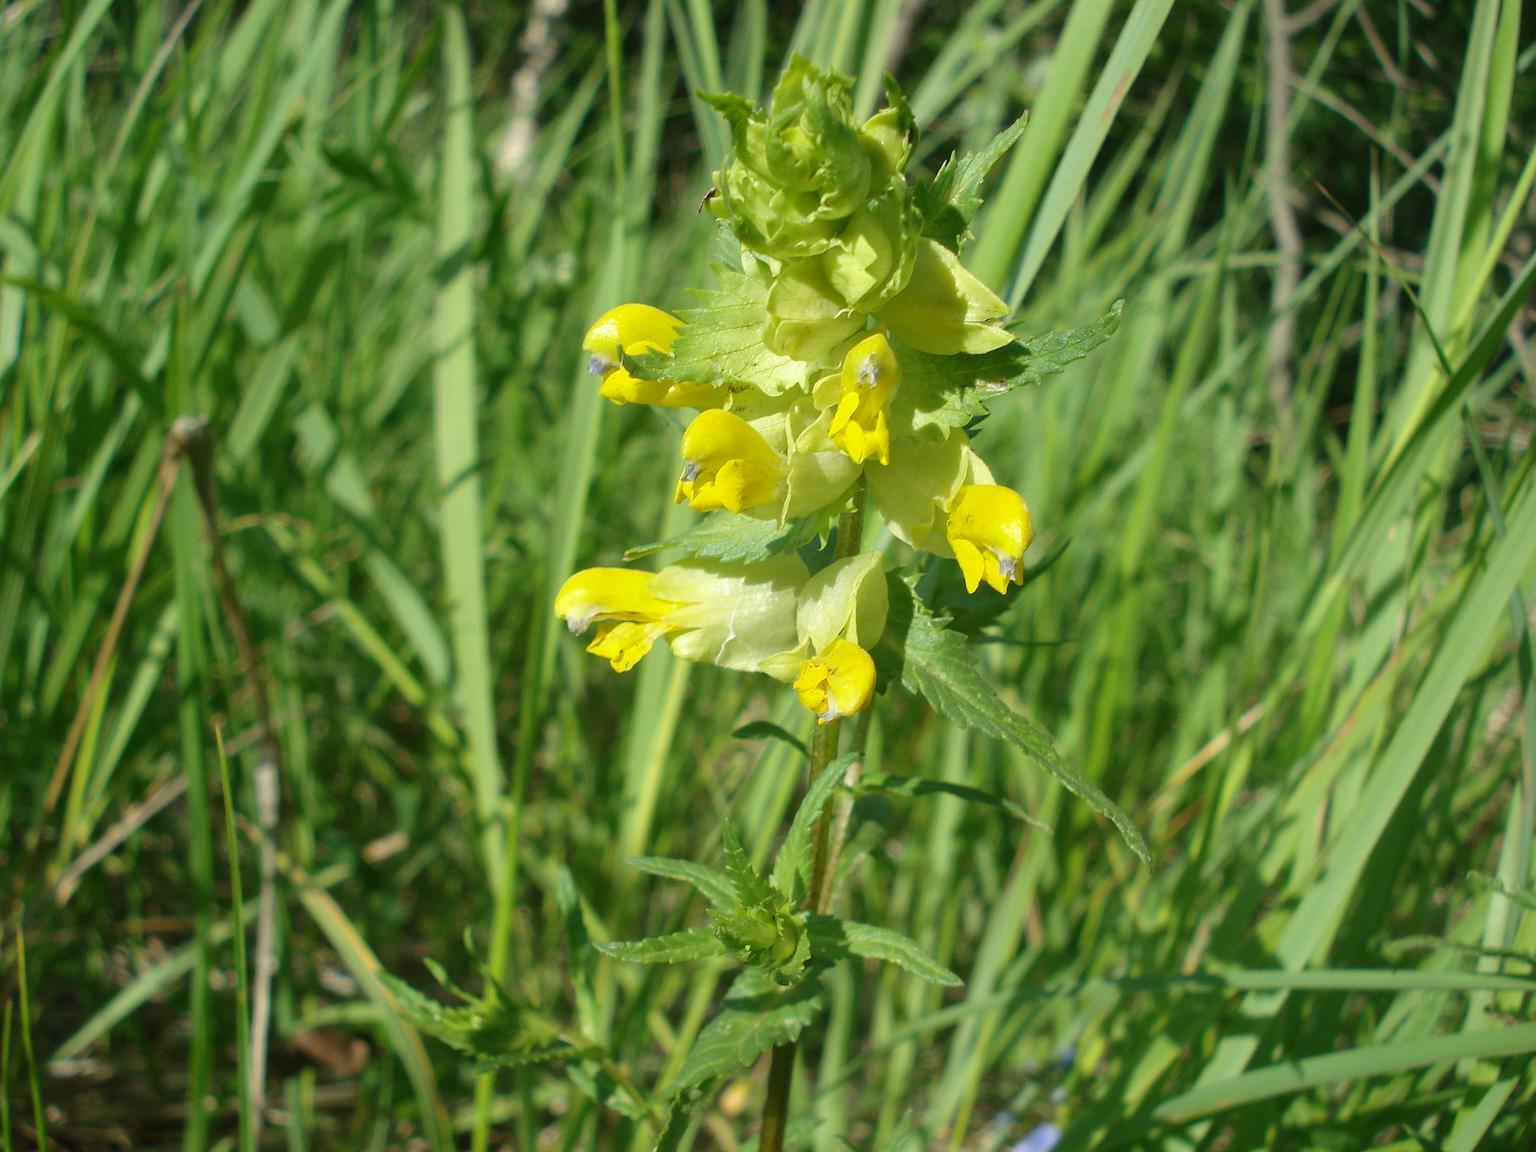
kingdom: Plantae
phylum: Tracheophyta
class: Magnoliopsida
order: Lamiales
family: Orobanchaceae
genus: Rhinanthus
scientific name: Rhinanthus serotinus
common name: Late-flowering yellow rattle
